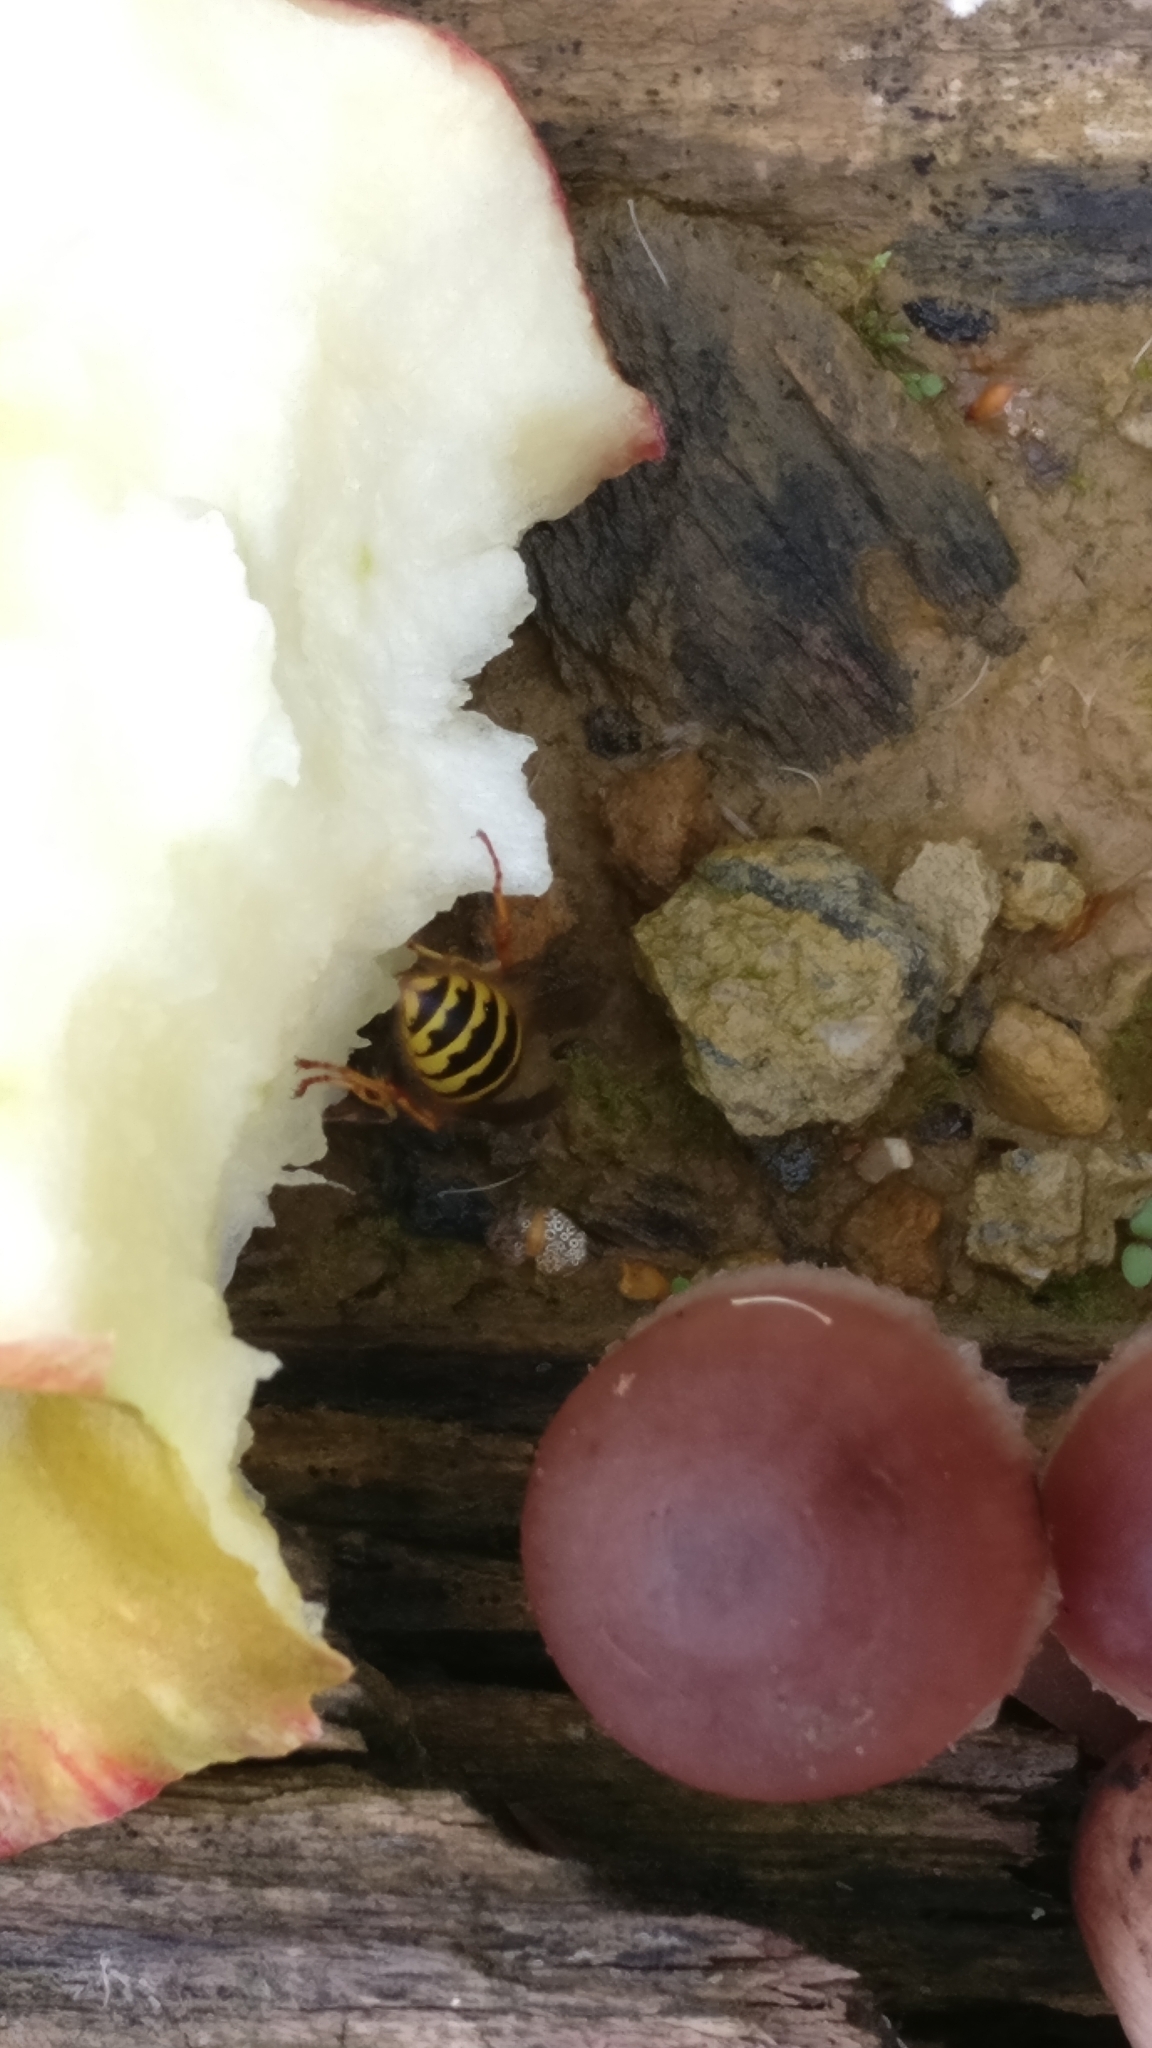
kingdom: Animalia
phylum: Arthropoda
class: Insecta
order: Hymenoptera
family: Vespidae
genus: Vespula
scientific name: Vespula vulgaris
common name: Common wasp
